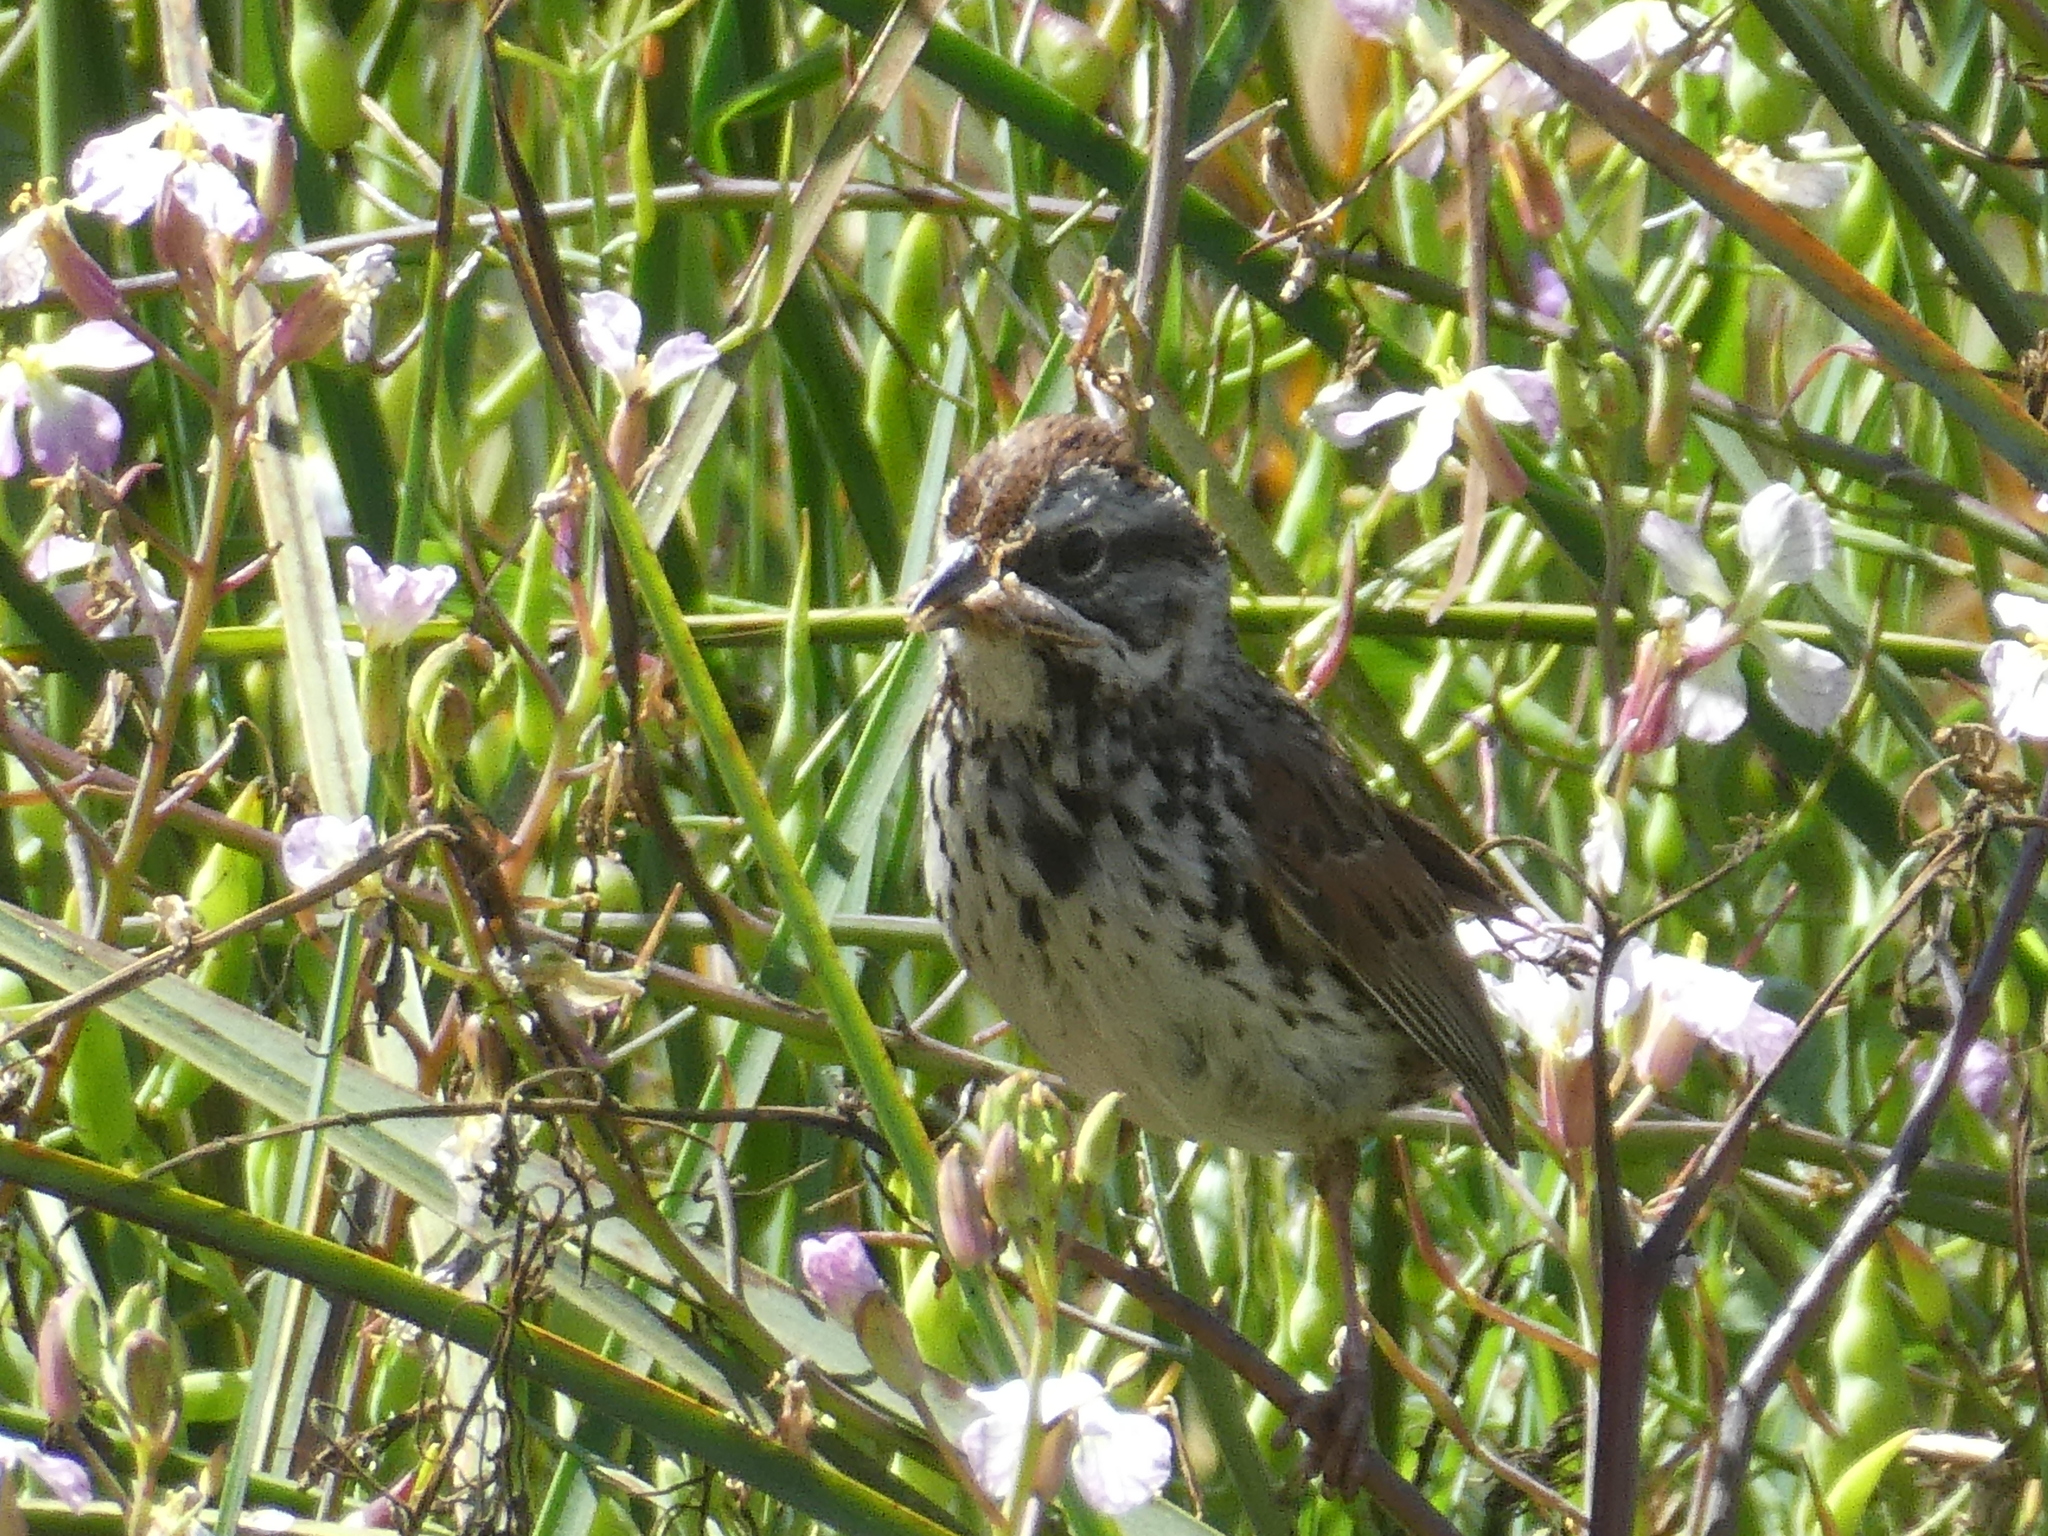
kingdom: Animalia
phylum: Chordata
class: Aves
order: Passeriformes
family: Passerellidae
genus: Melospiza
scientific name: Melospiza melodia
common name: Song sparrow
